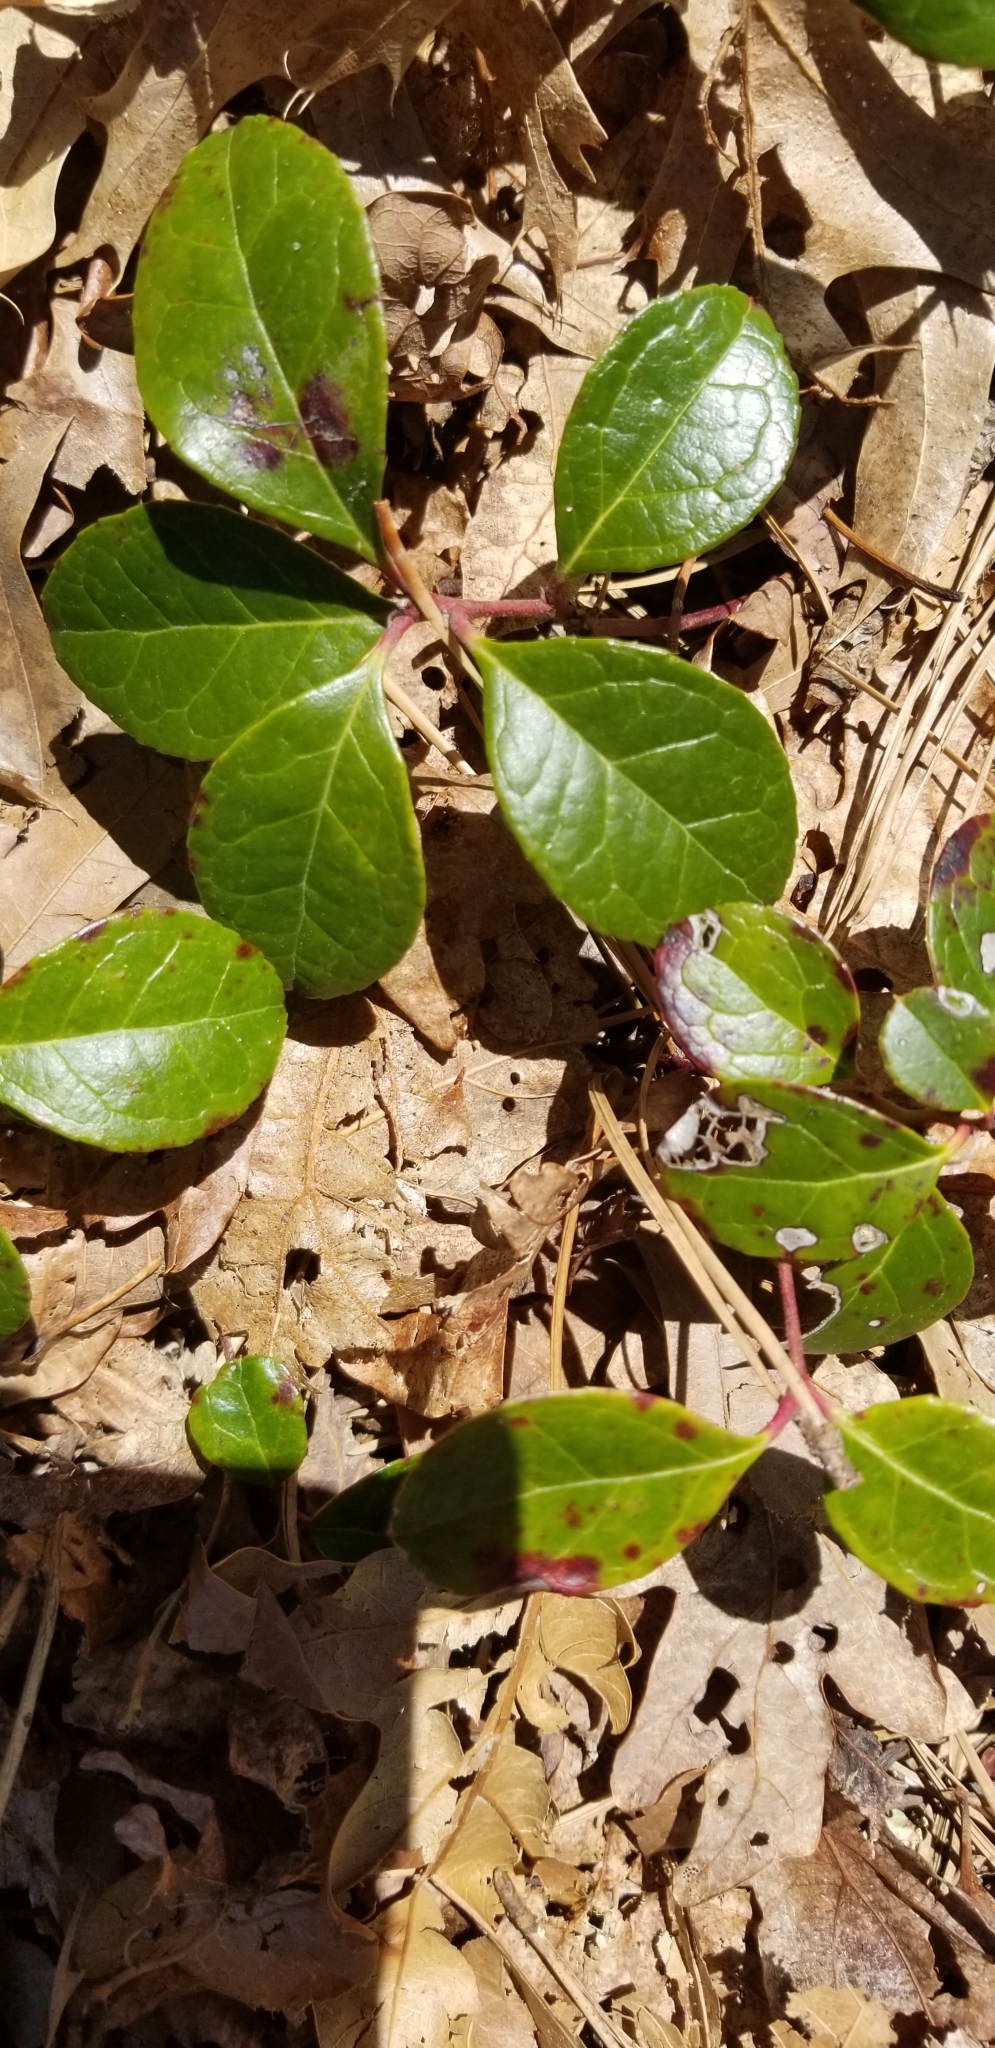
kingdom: Plantae
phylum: Tracheophyta
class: Magnoliopsida
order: Ericales
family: Ericaceae
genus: Gaultheria
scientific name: Gaultheria procumbens
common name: Checkerberry
